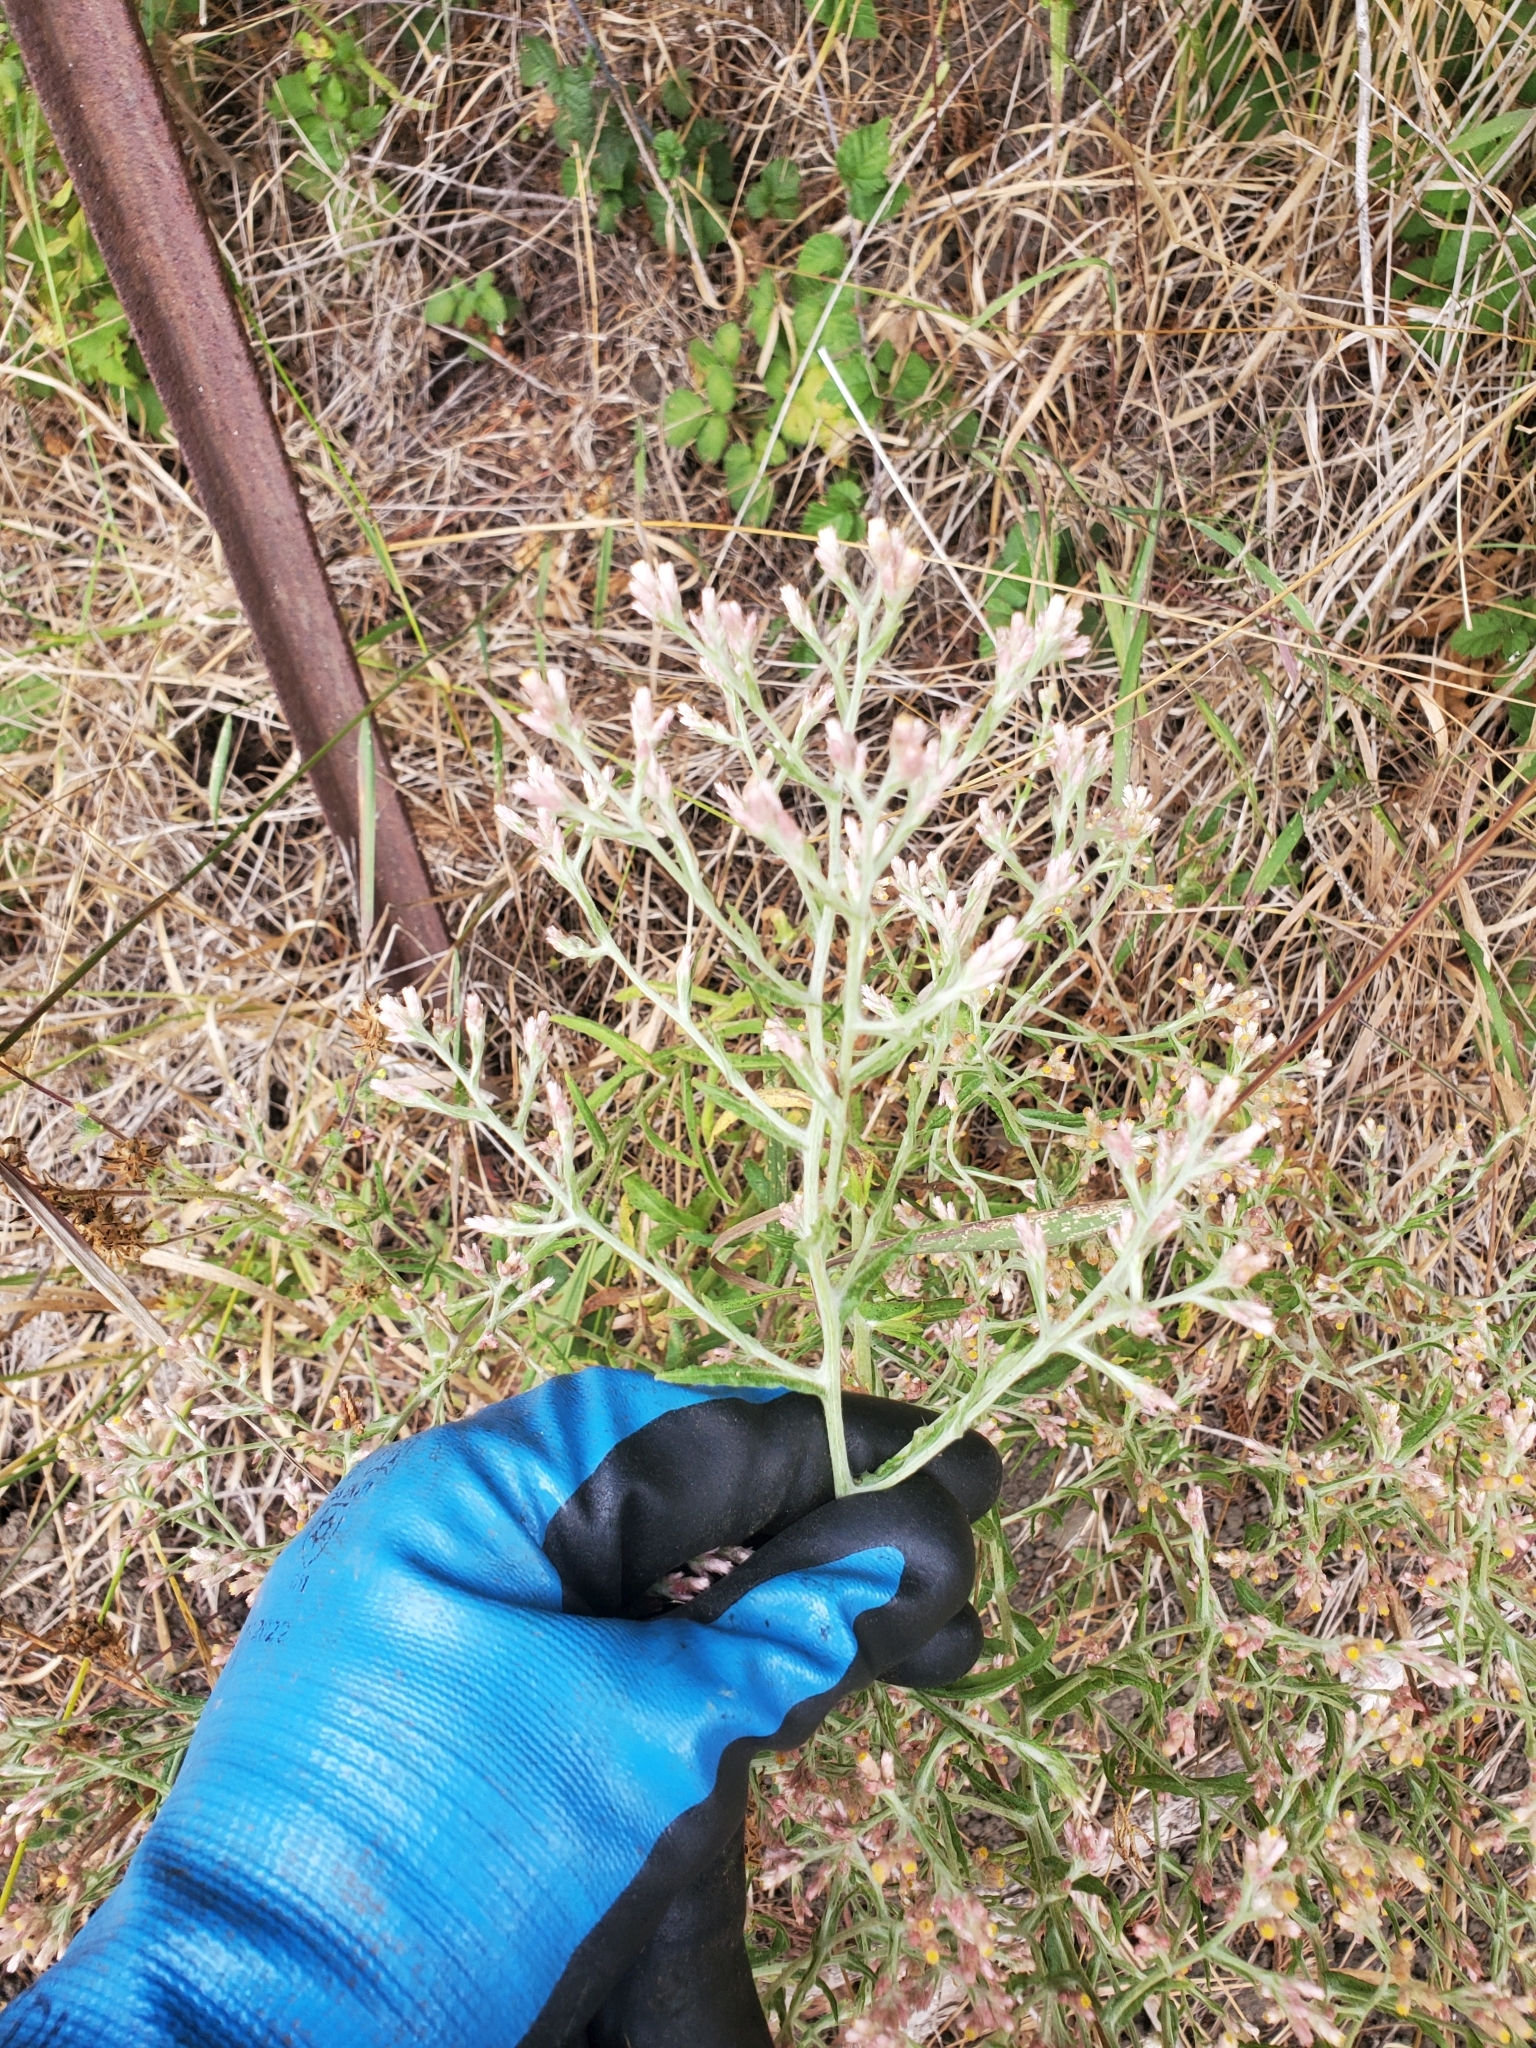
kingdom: Plantae
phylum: Tracheophyta
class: Magnoliopsida
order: Asterales
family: Asteraceae
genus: Pseudognaphalium
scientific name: Pseudognaphalium ramosissimum
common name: Pink rabbit-tobacco
